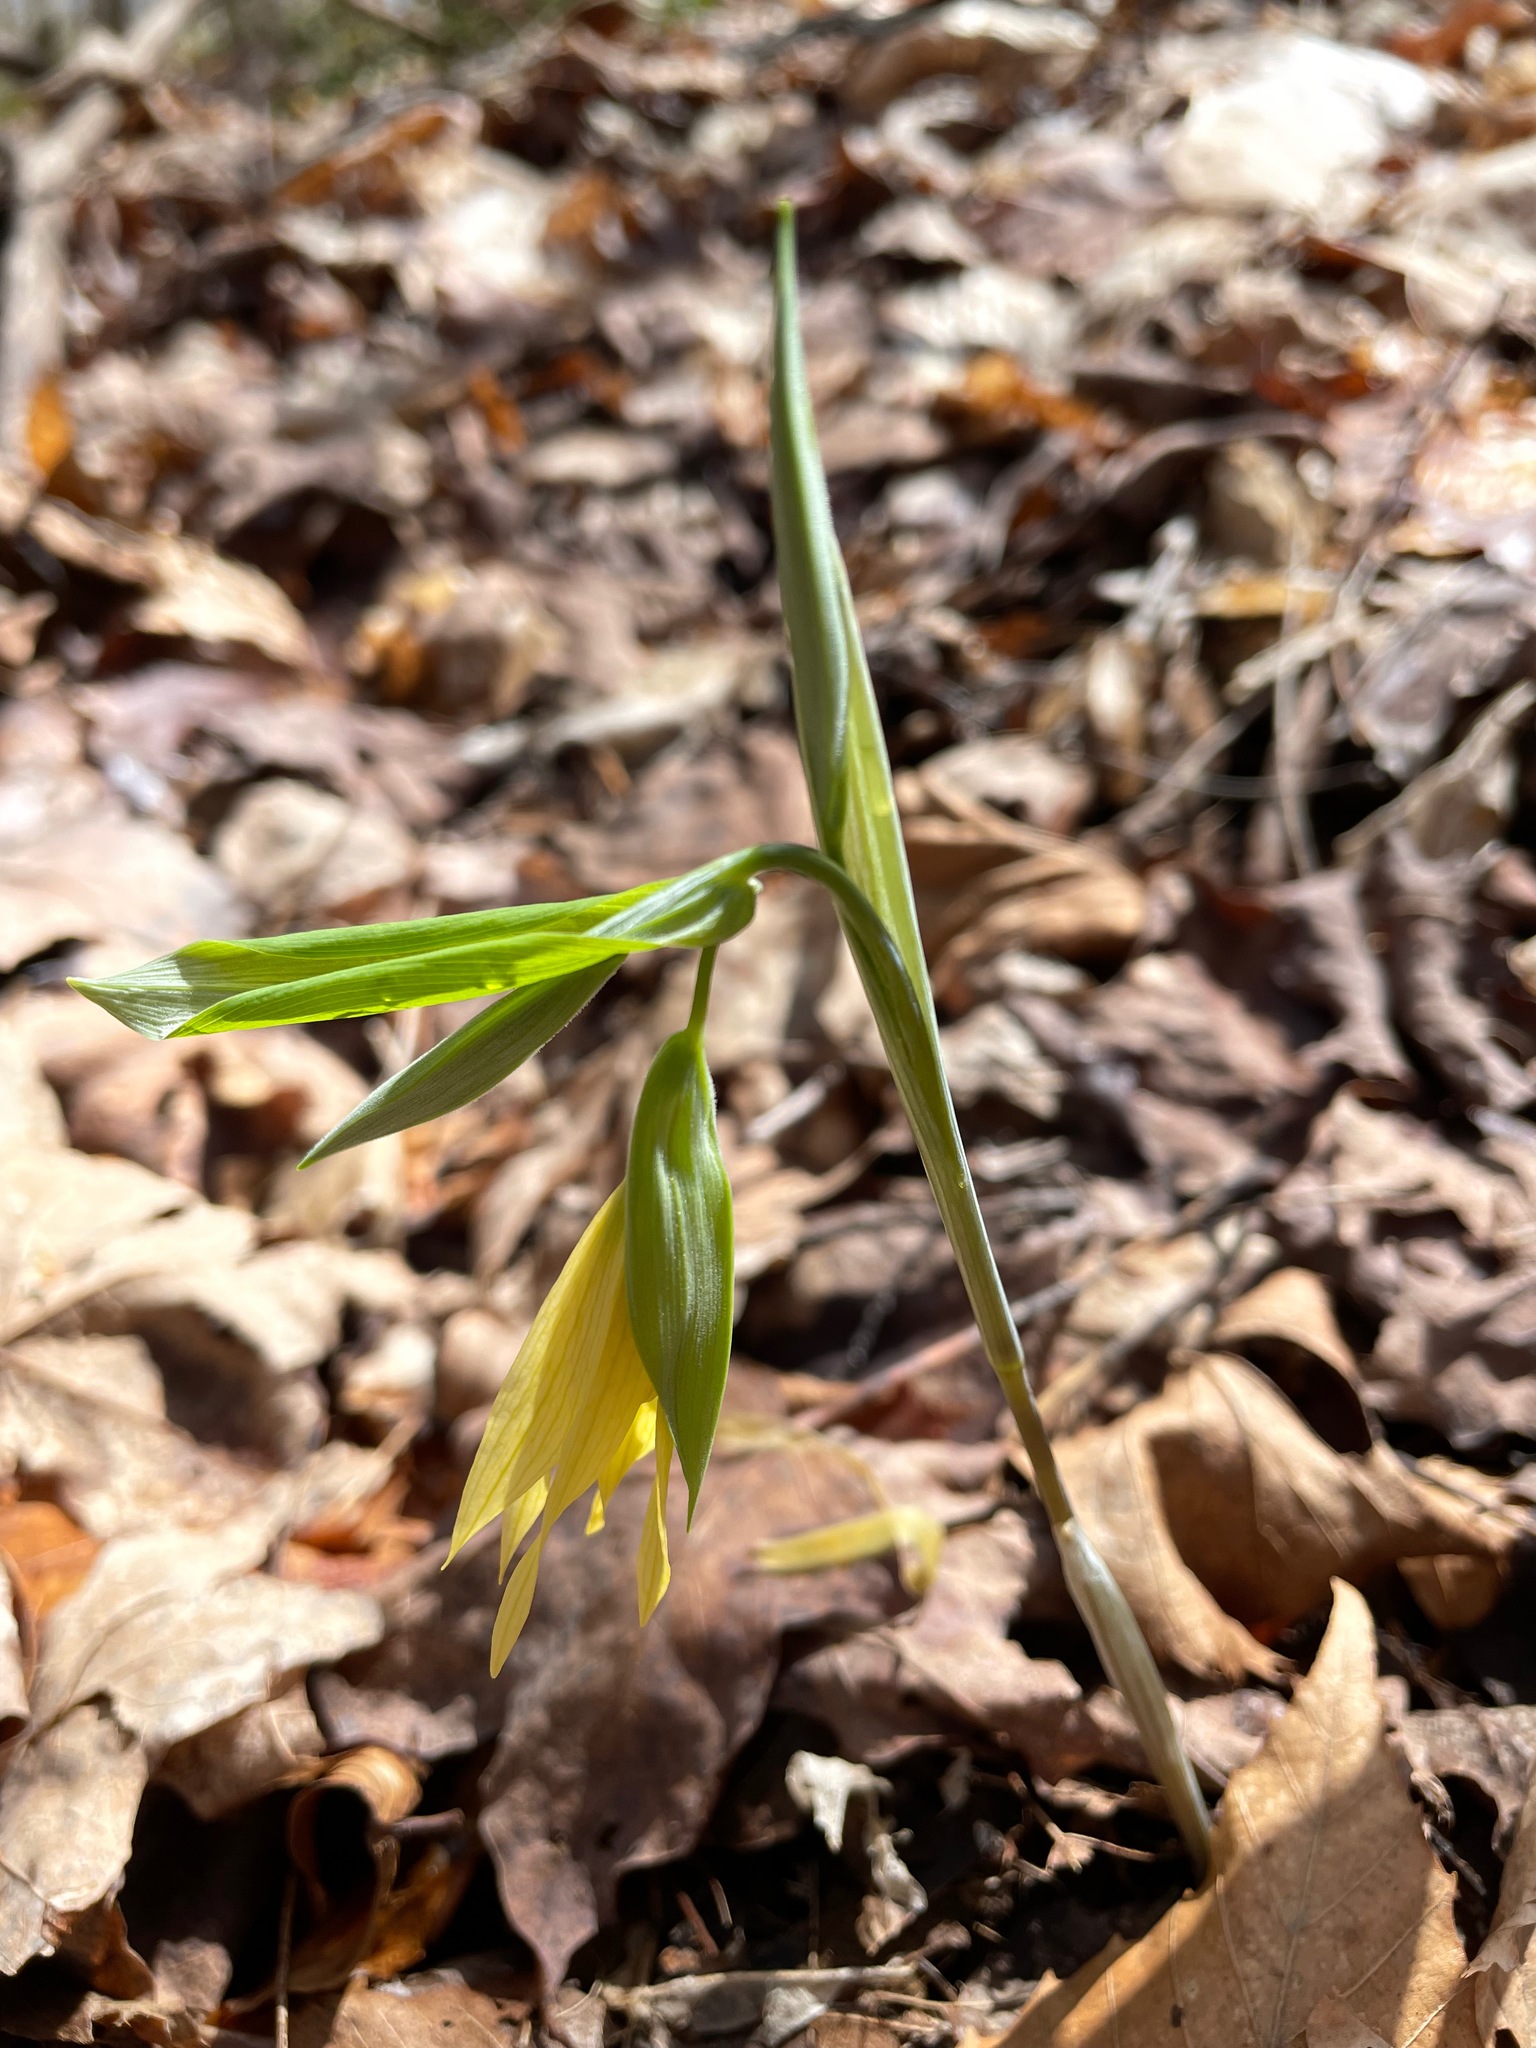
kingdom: Plantae
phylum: Tracheophyta
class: Liliopsida
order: Liliales
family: Colchicaceae
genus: Uvularia
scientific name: Uvularia grandiflora
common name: Bellwort
